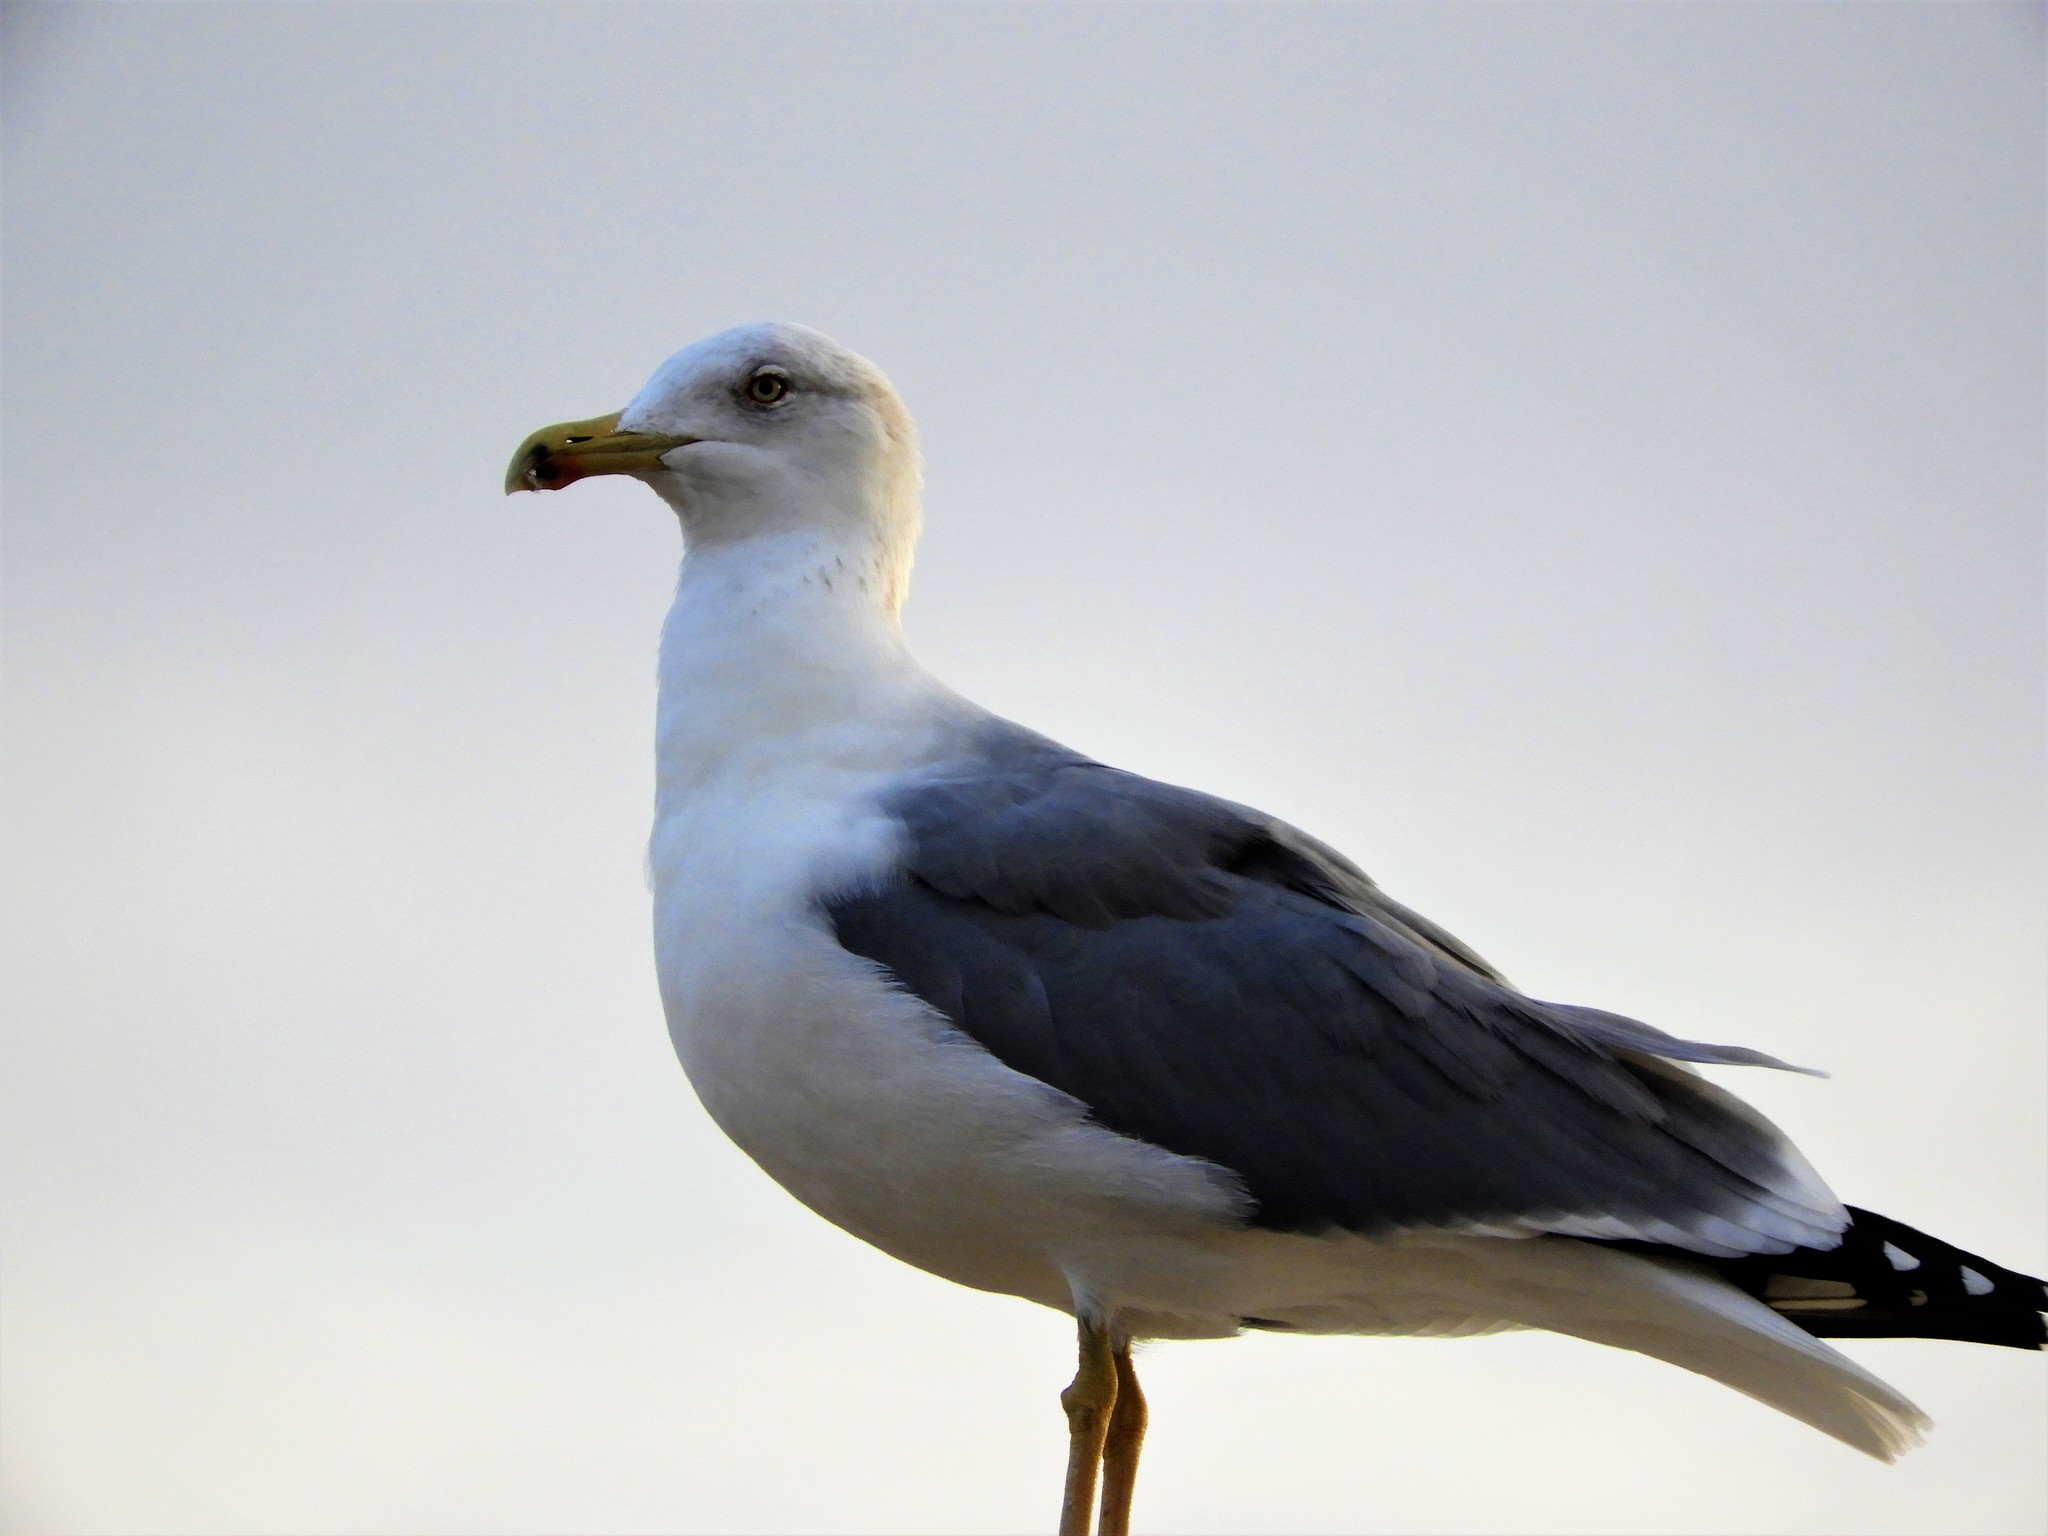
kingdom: Animalia
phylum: Chordata
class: Aves
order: Charadriiformes
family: Laridae
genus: Larus
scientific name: Larus michahellis
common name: Yellow-legged gull
